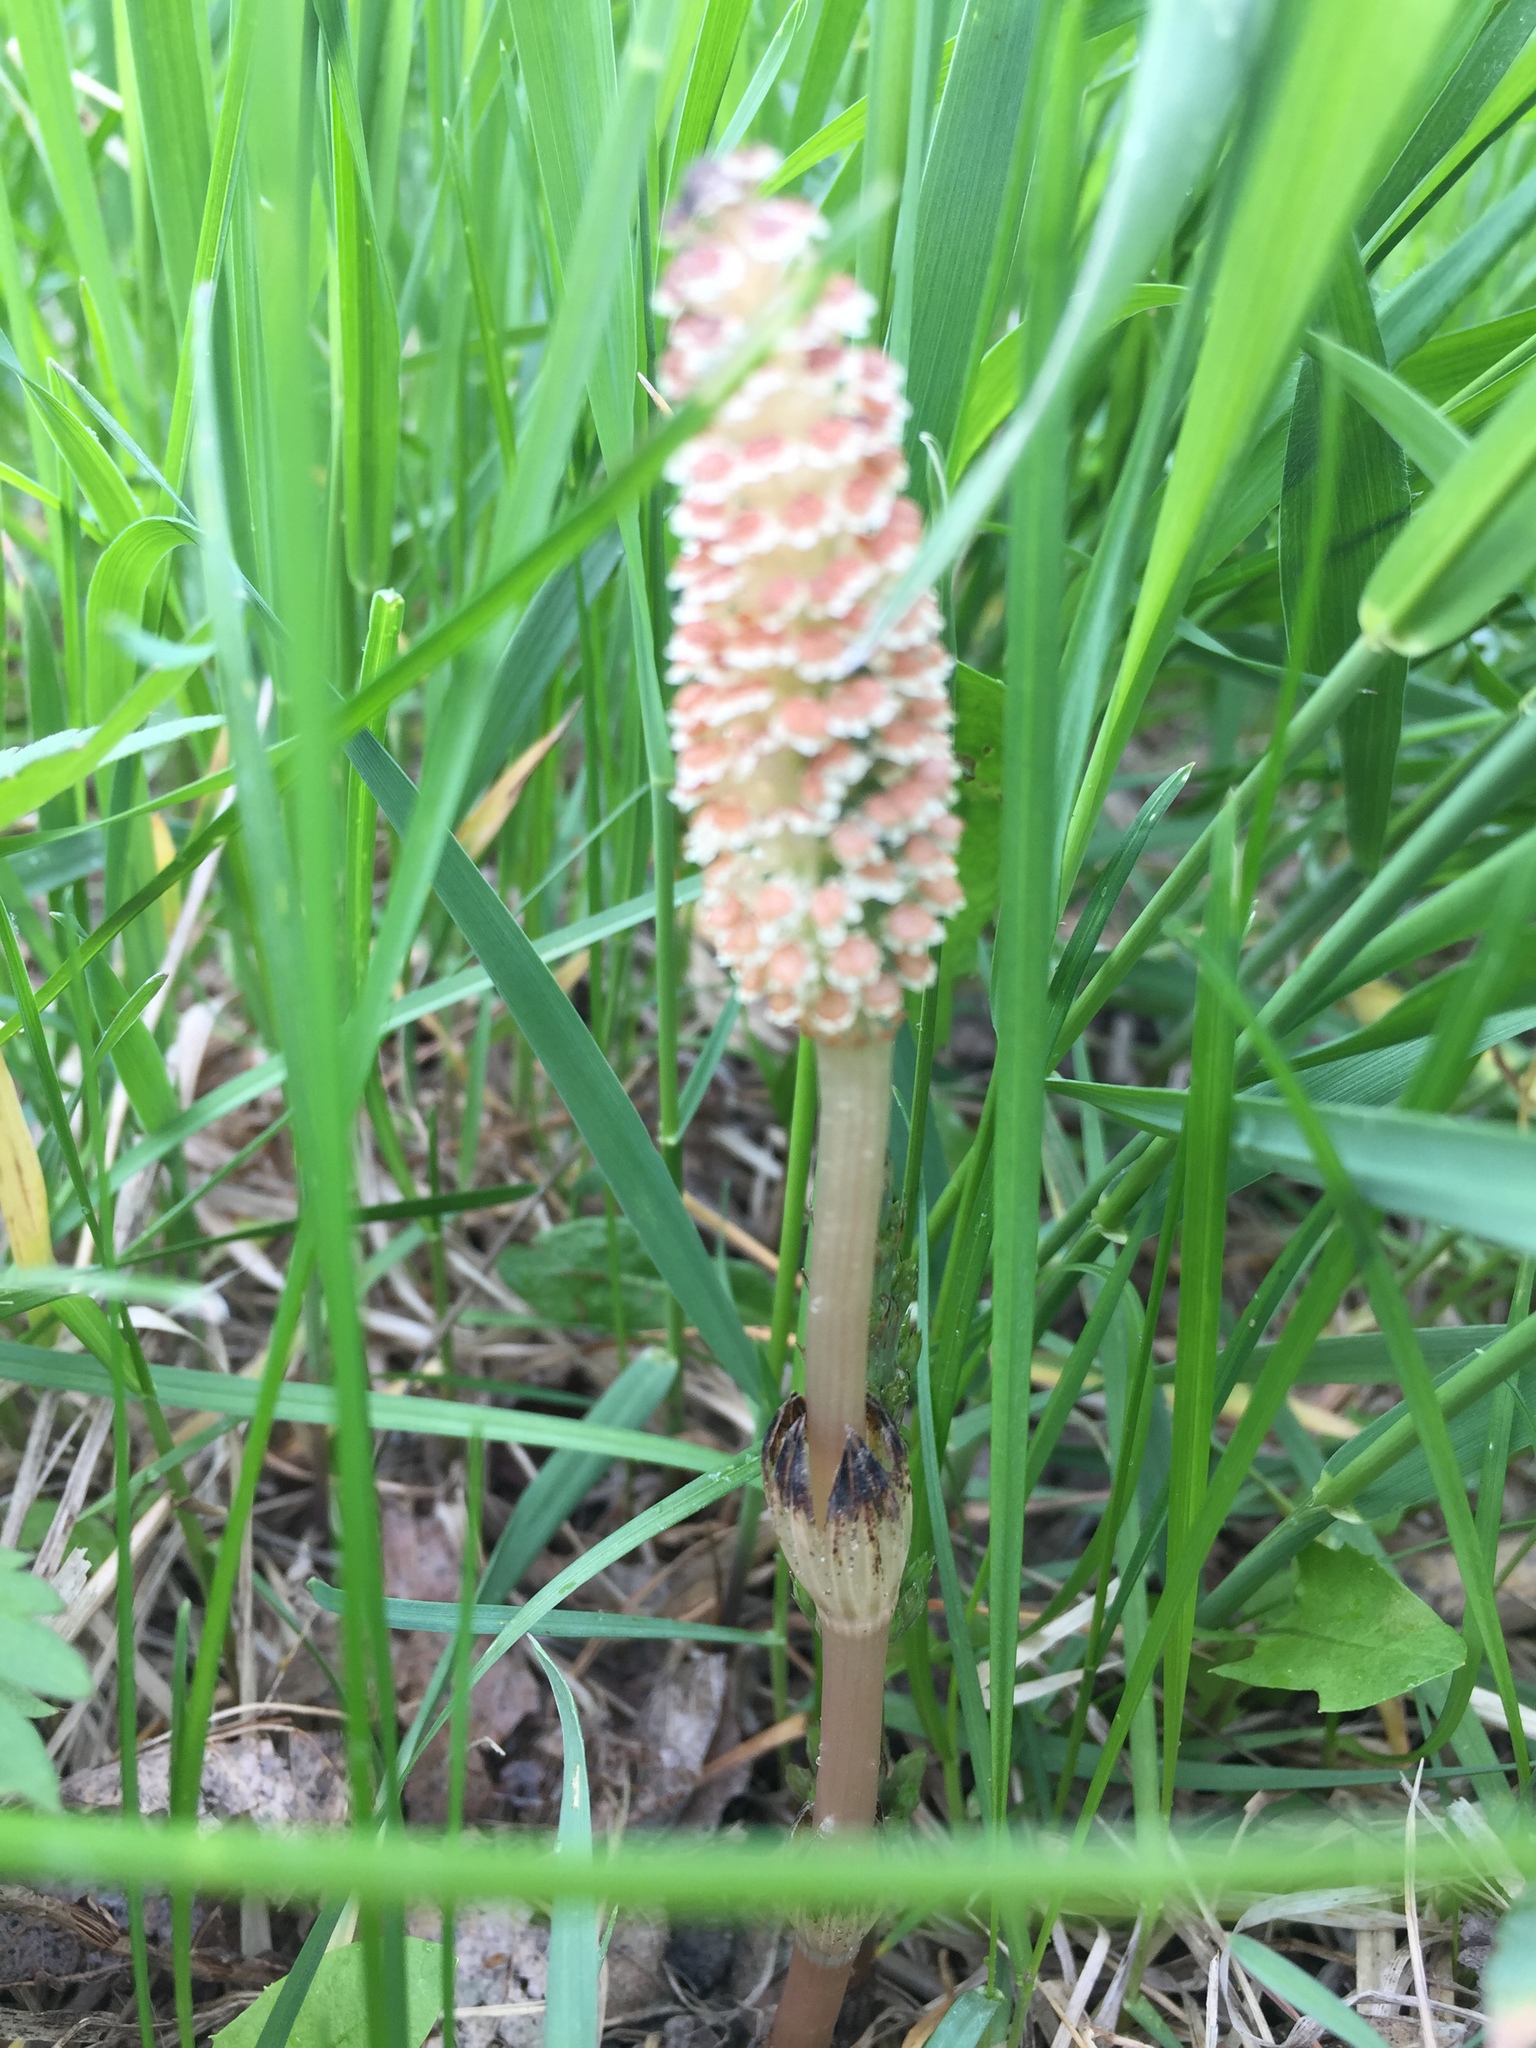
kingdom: Plantae
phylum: Tracheophyta
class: Polypodiopsida
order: Equisetales
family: Equisetaceae
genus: Equisetum
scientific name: Equisetum arvense
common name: Field horsetail
